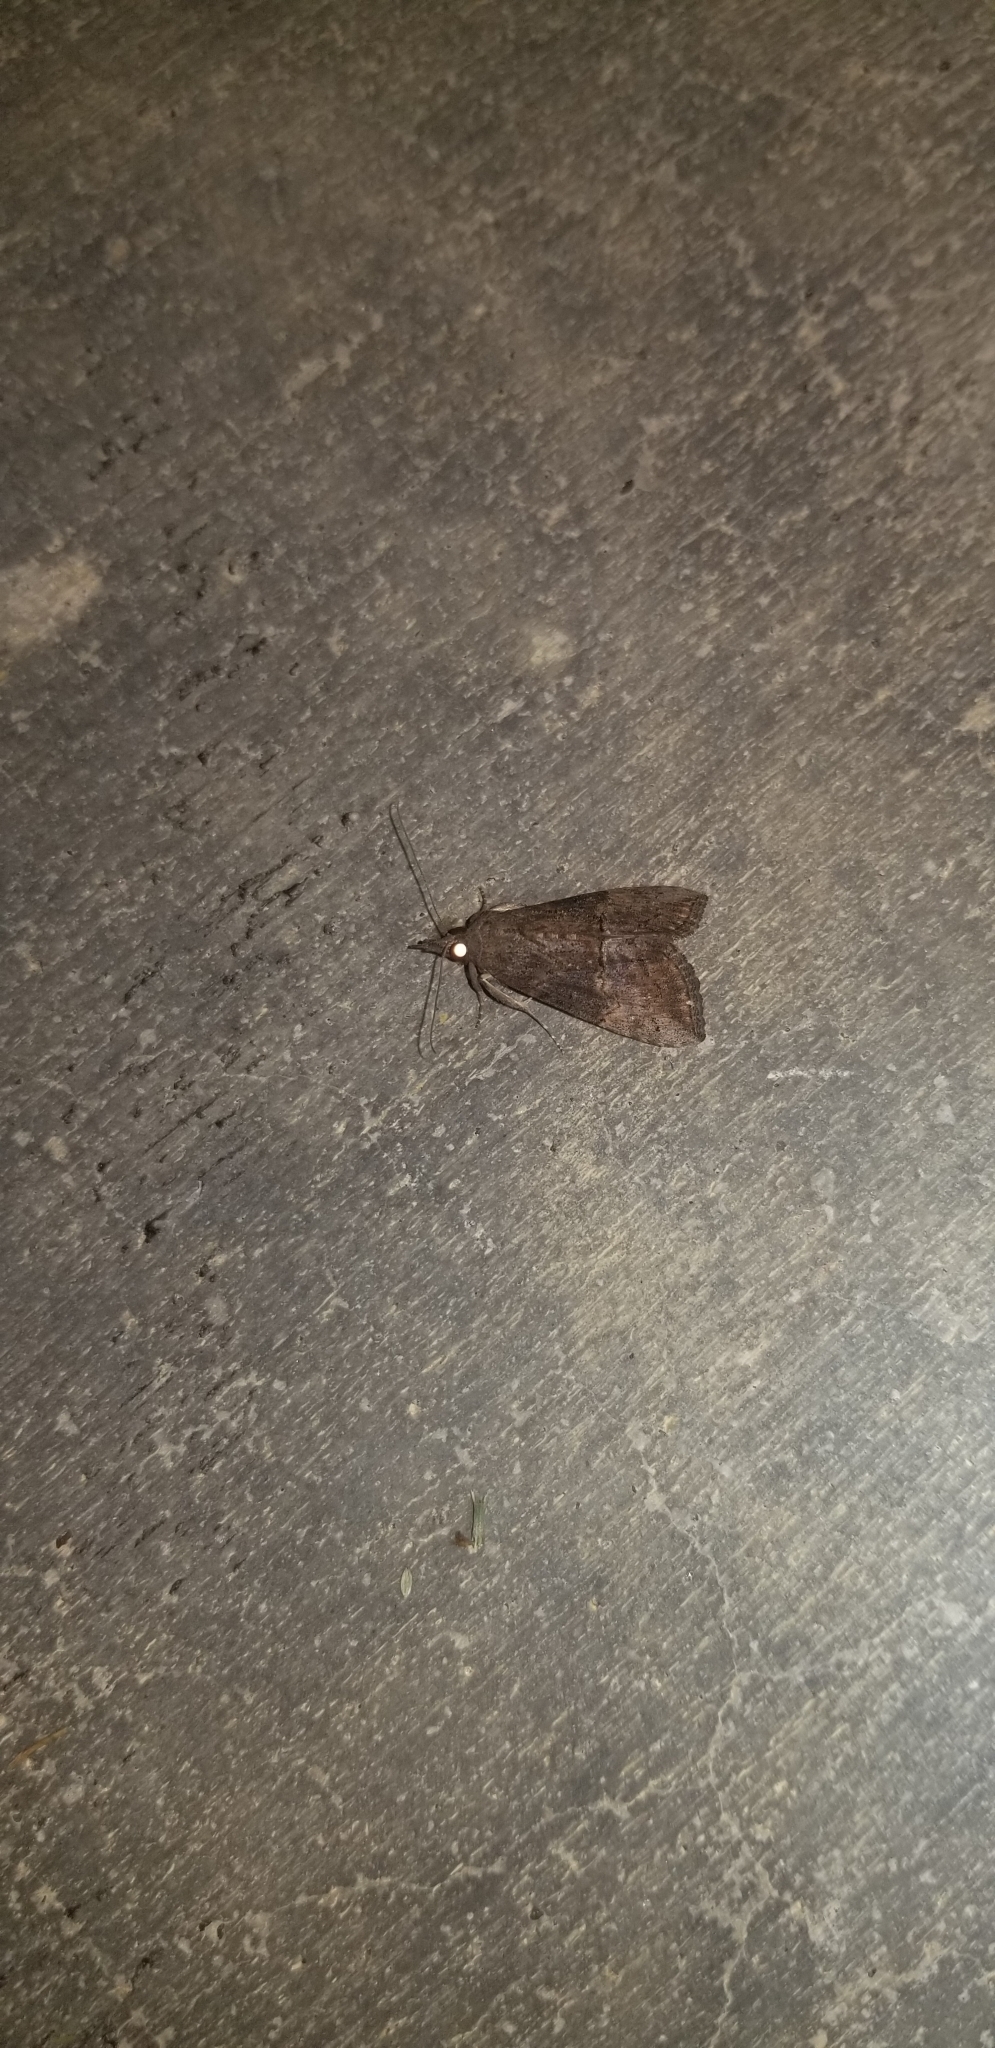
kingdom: Animalia
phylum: Arthropoda
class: Insecta
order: Lepidoptera
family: Erebidae
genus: Hypena
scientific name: Hypena scabra
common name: Green cloverworm
